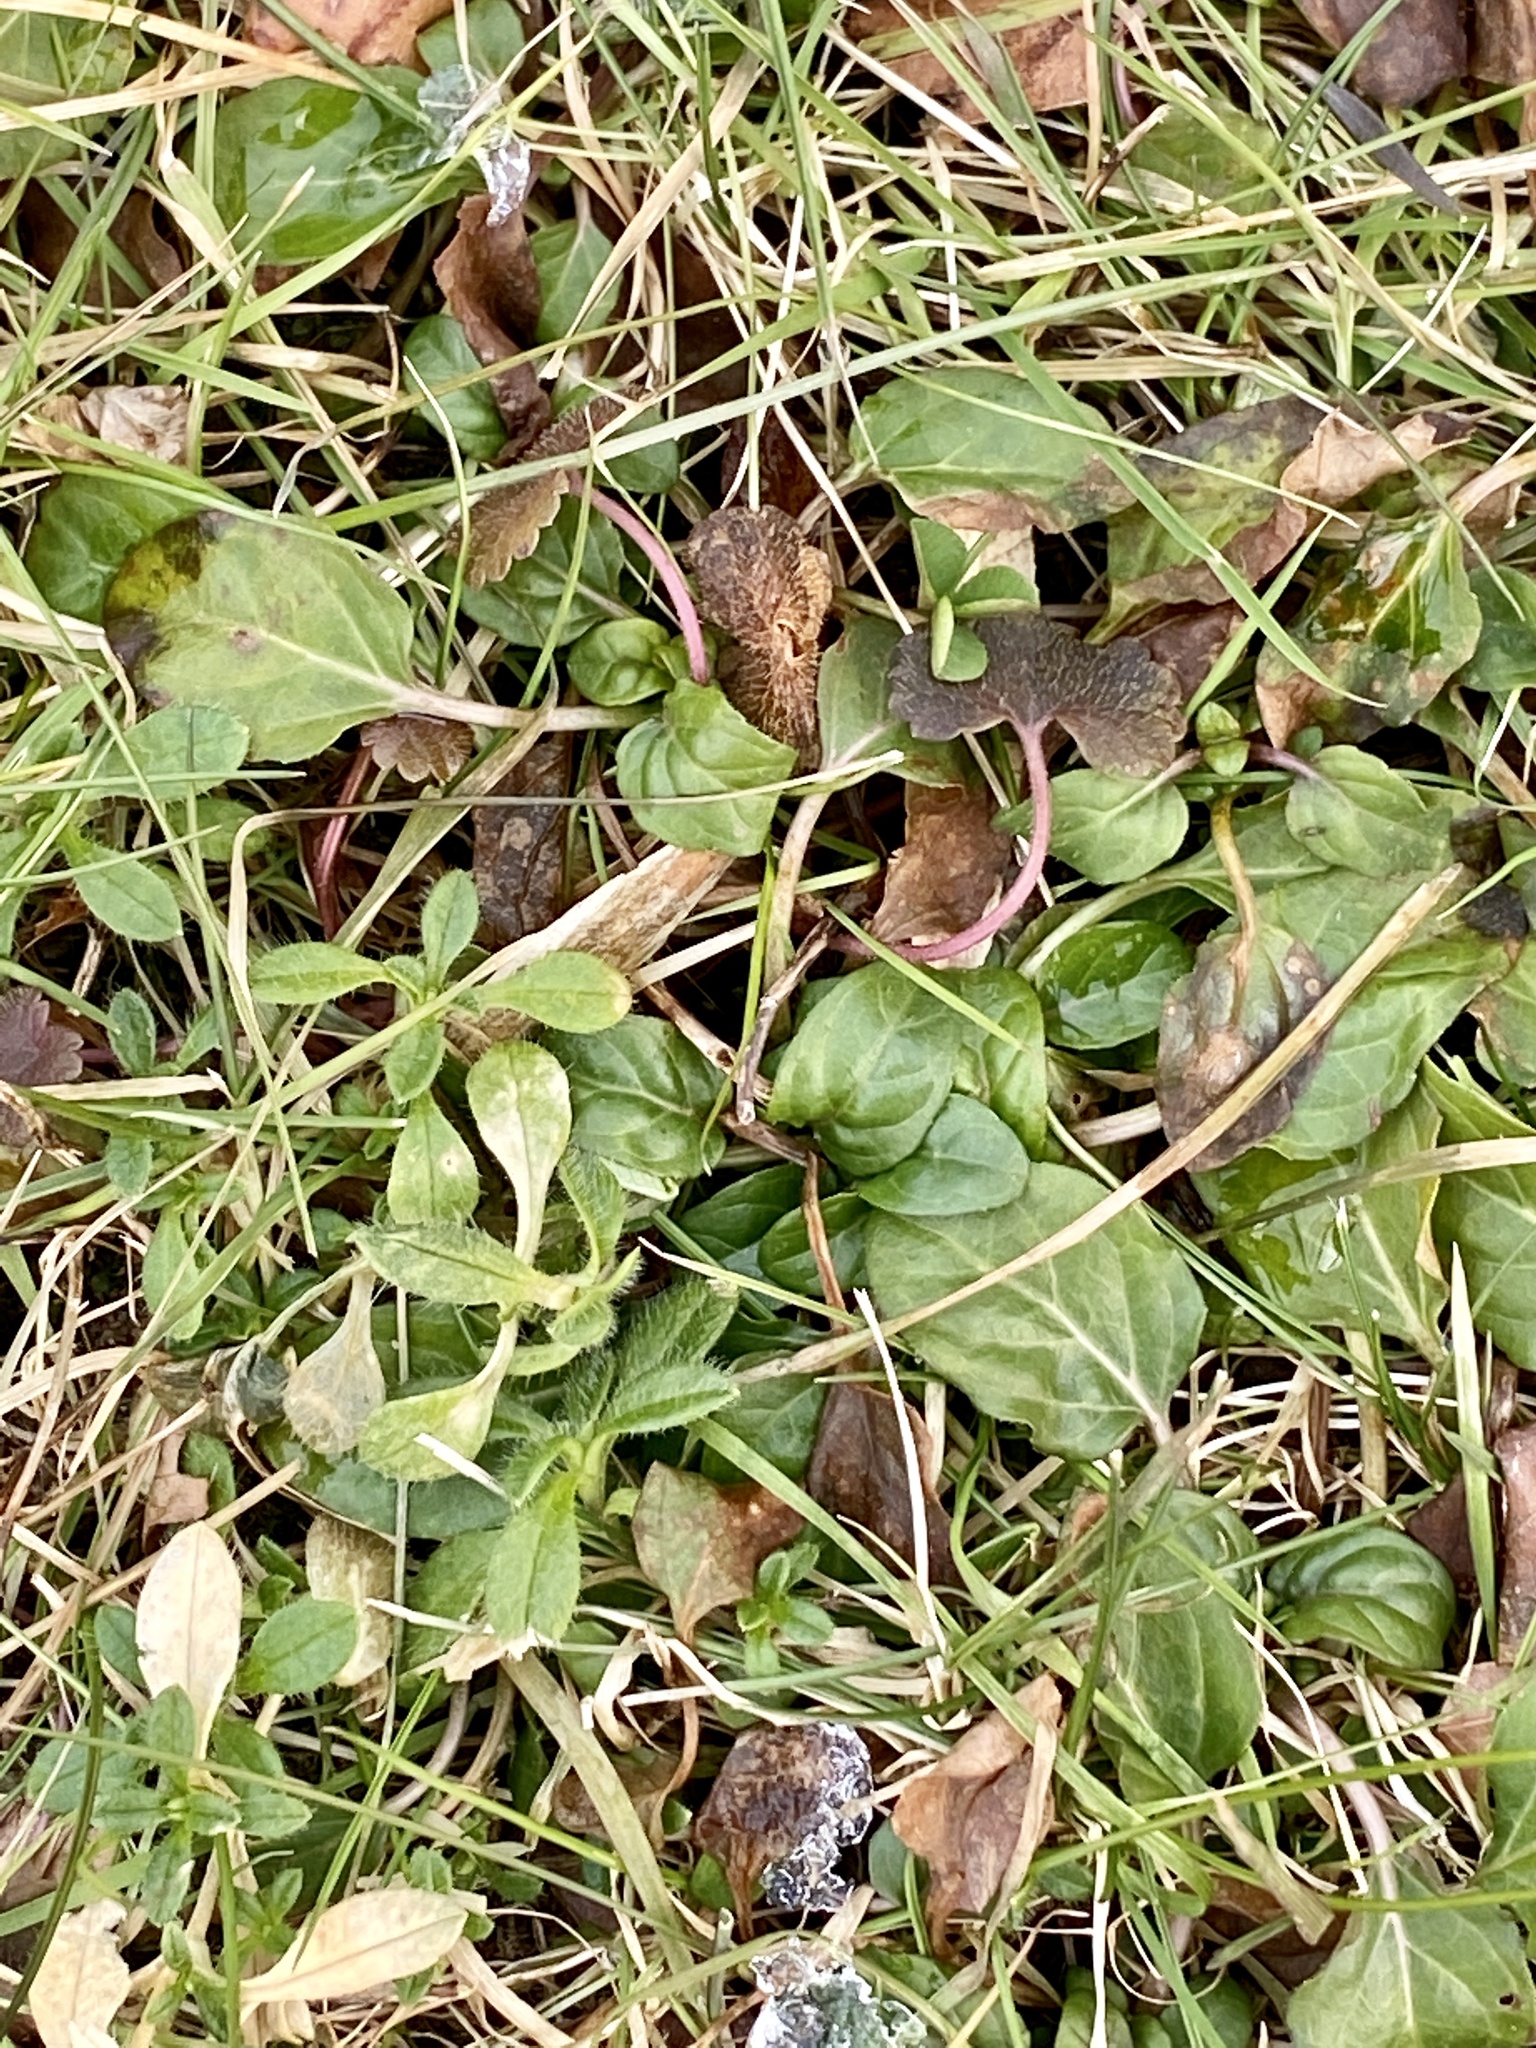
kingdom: Plantae
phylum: Tracheophyta
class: Magnoliopsida
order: Lamiales
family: Lamiaceae
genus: Prunella
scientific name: Prunella vulgaris
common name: Heal-all
